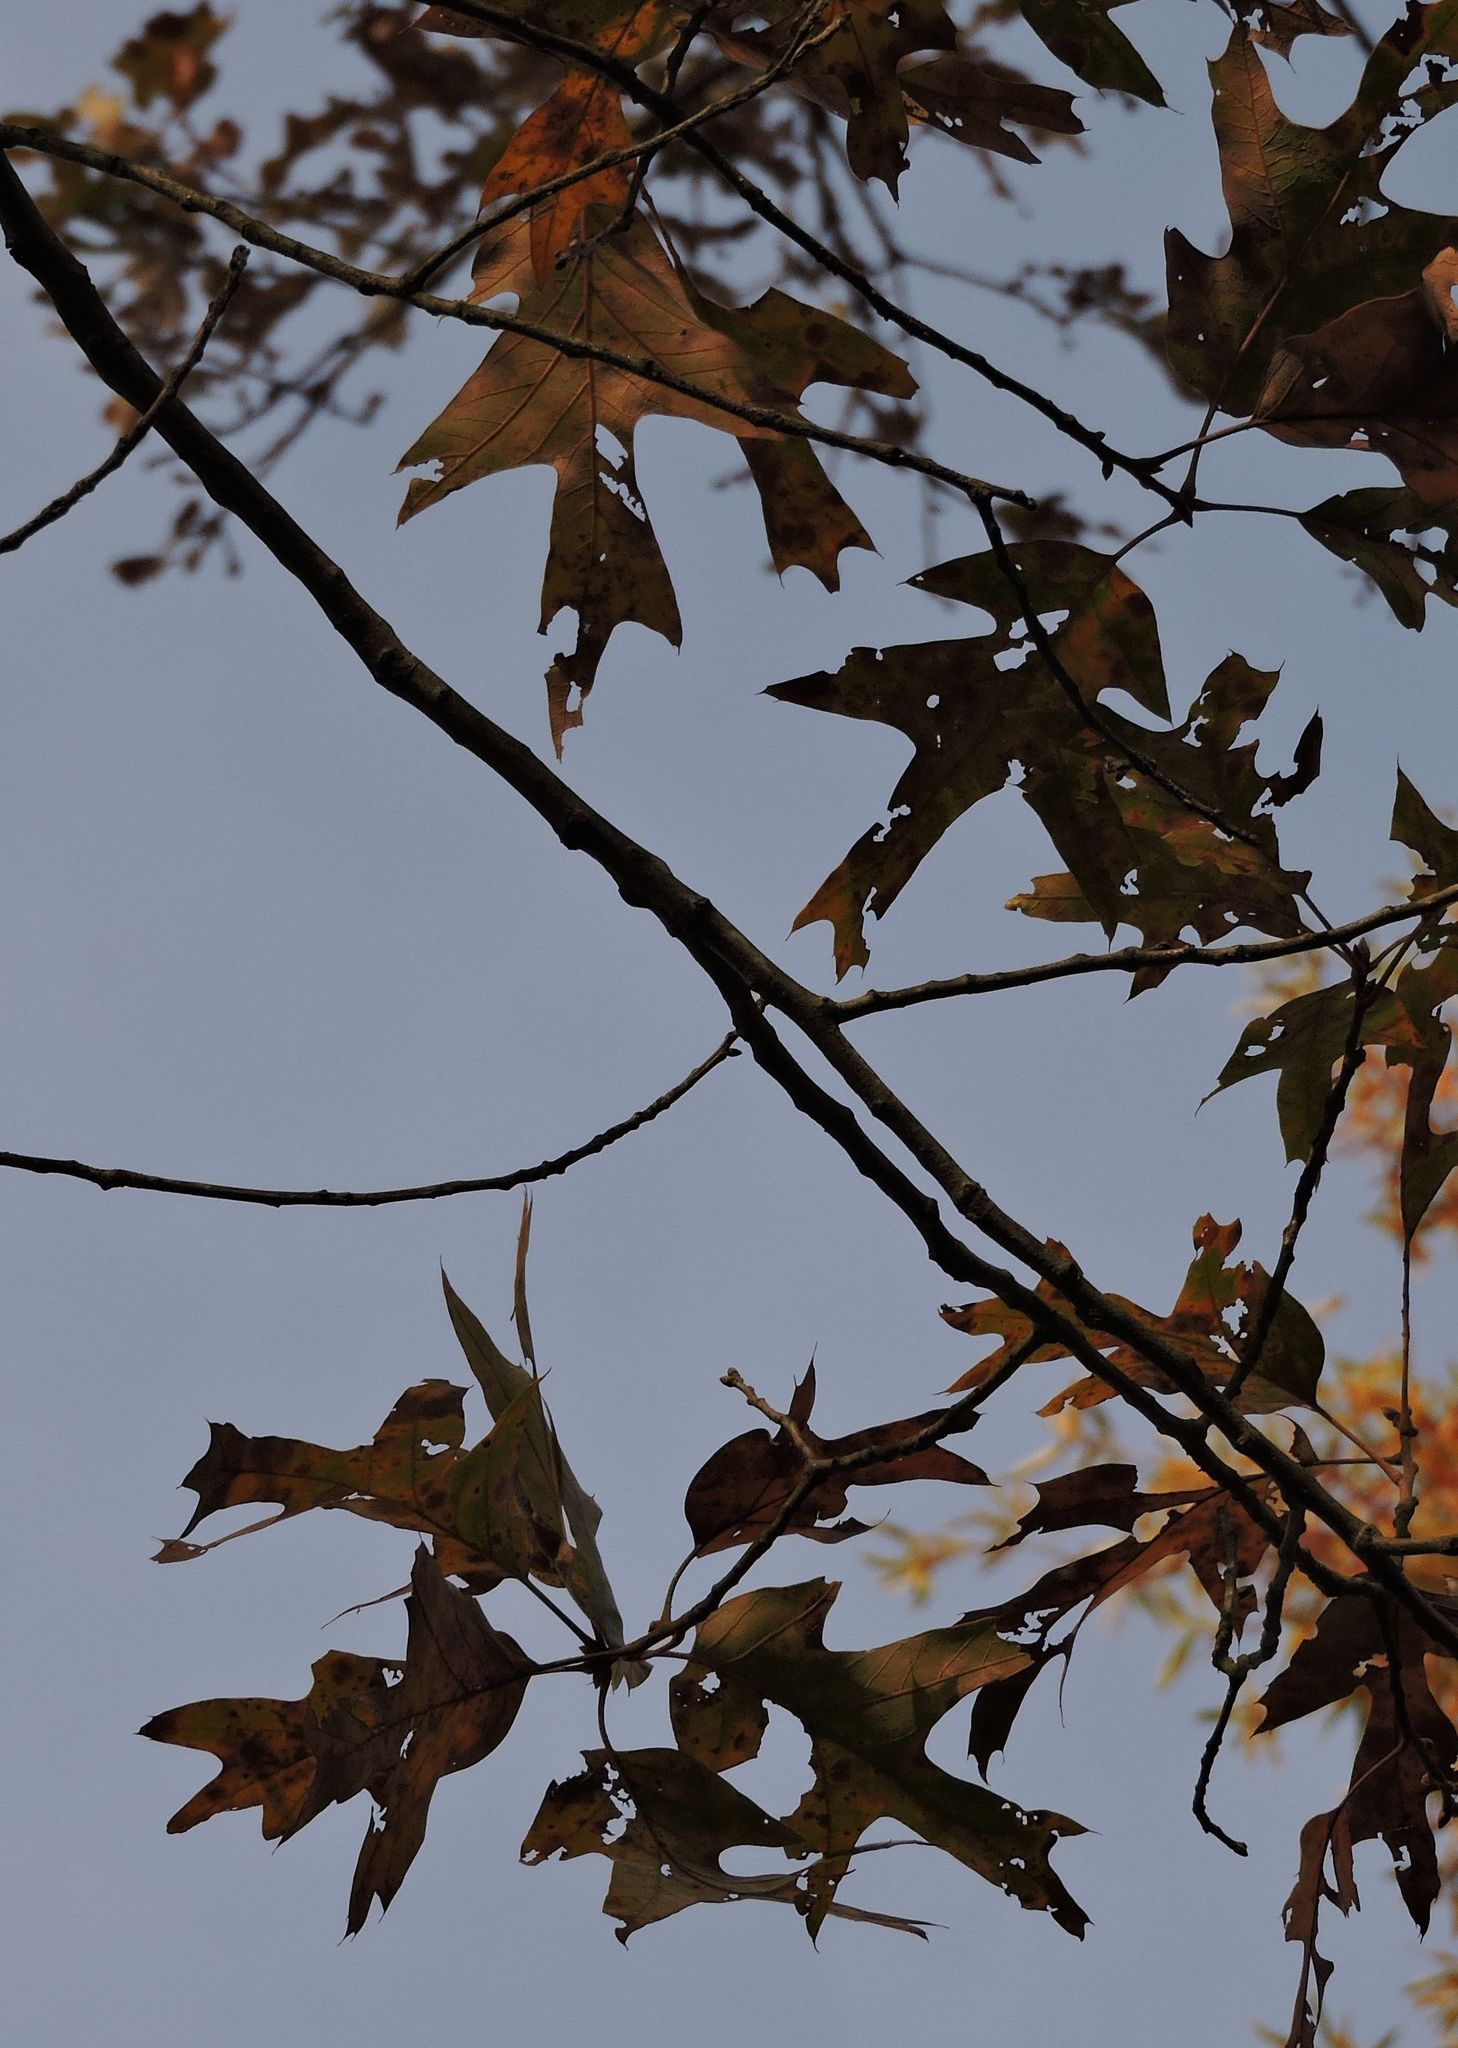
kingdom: Plantae
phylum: Tracheophyta
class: Magnoliopsida
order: Fagales
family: Fagaceae
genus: Quercus
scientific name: Quercus falcata
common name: Southern red oak
